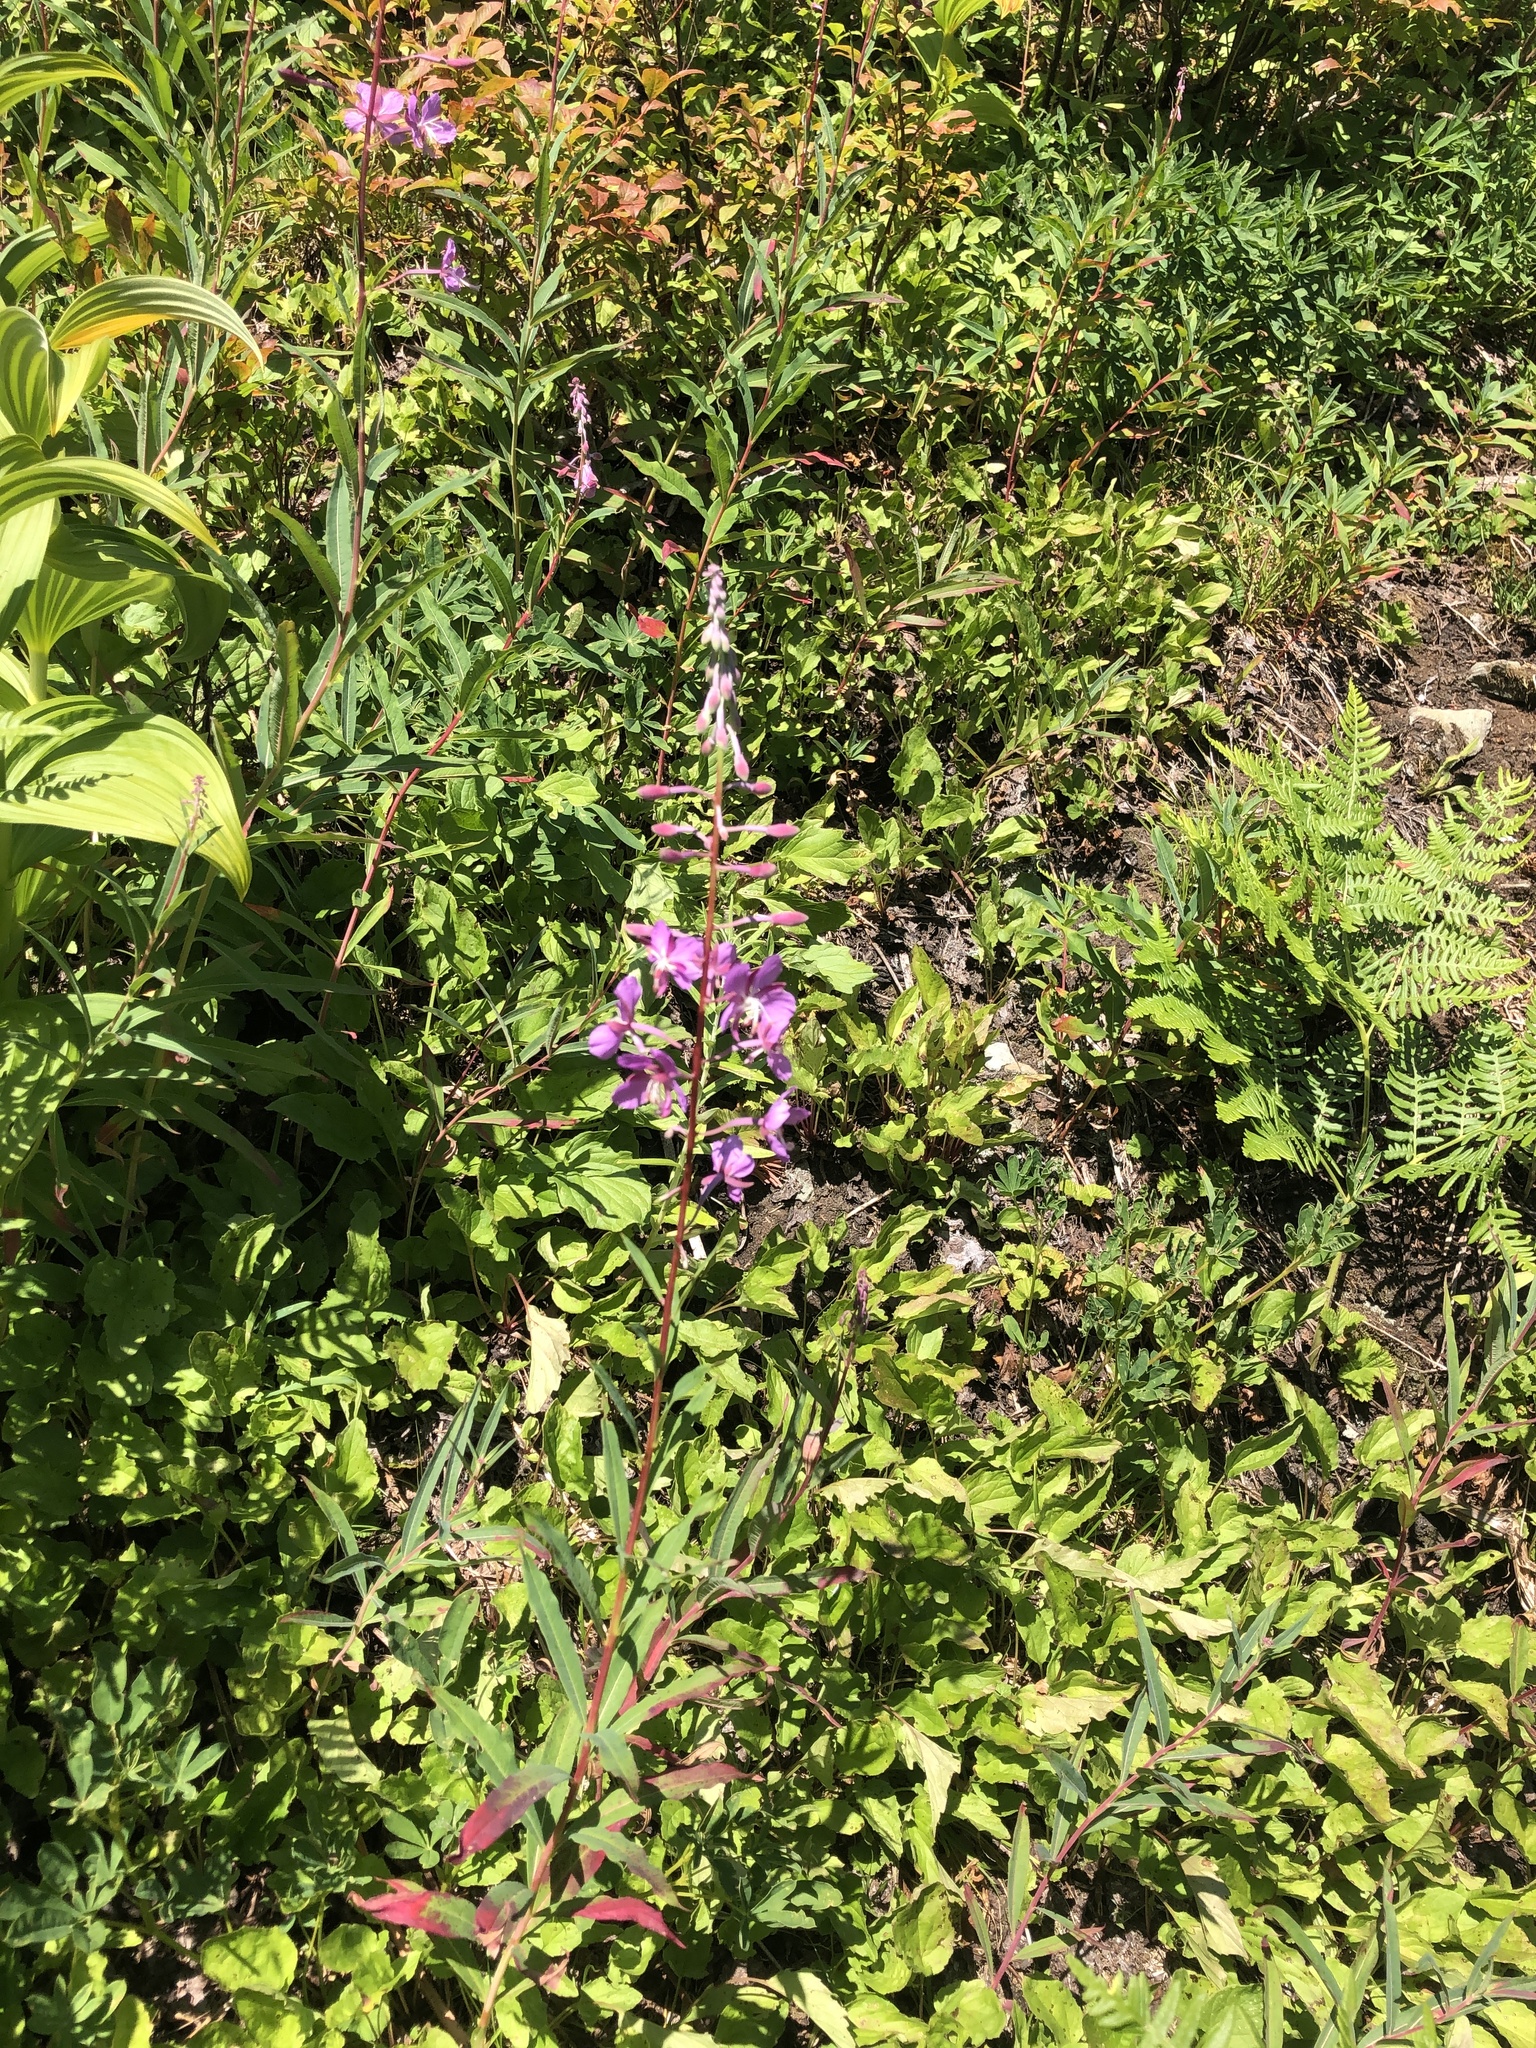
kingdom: Plantae
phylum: Tracheophyta
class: Magnoliopsida
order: Myrtales
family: Onagraceae
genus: Chamaenerion
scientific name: Chamaenerion angustifolium
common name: Fireweed
